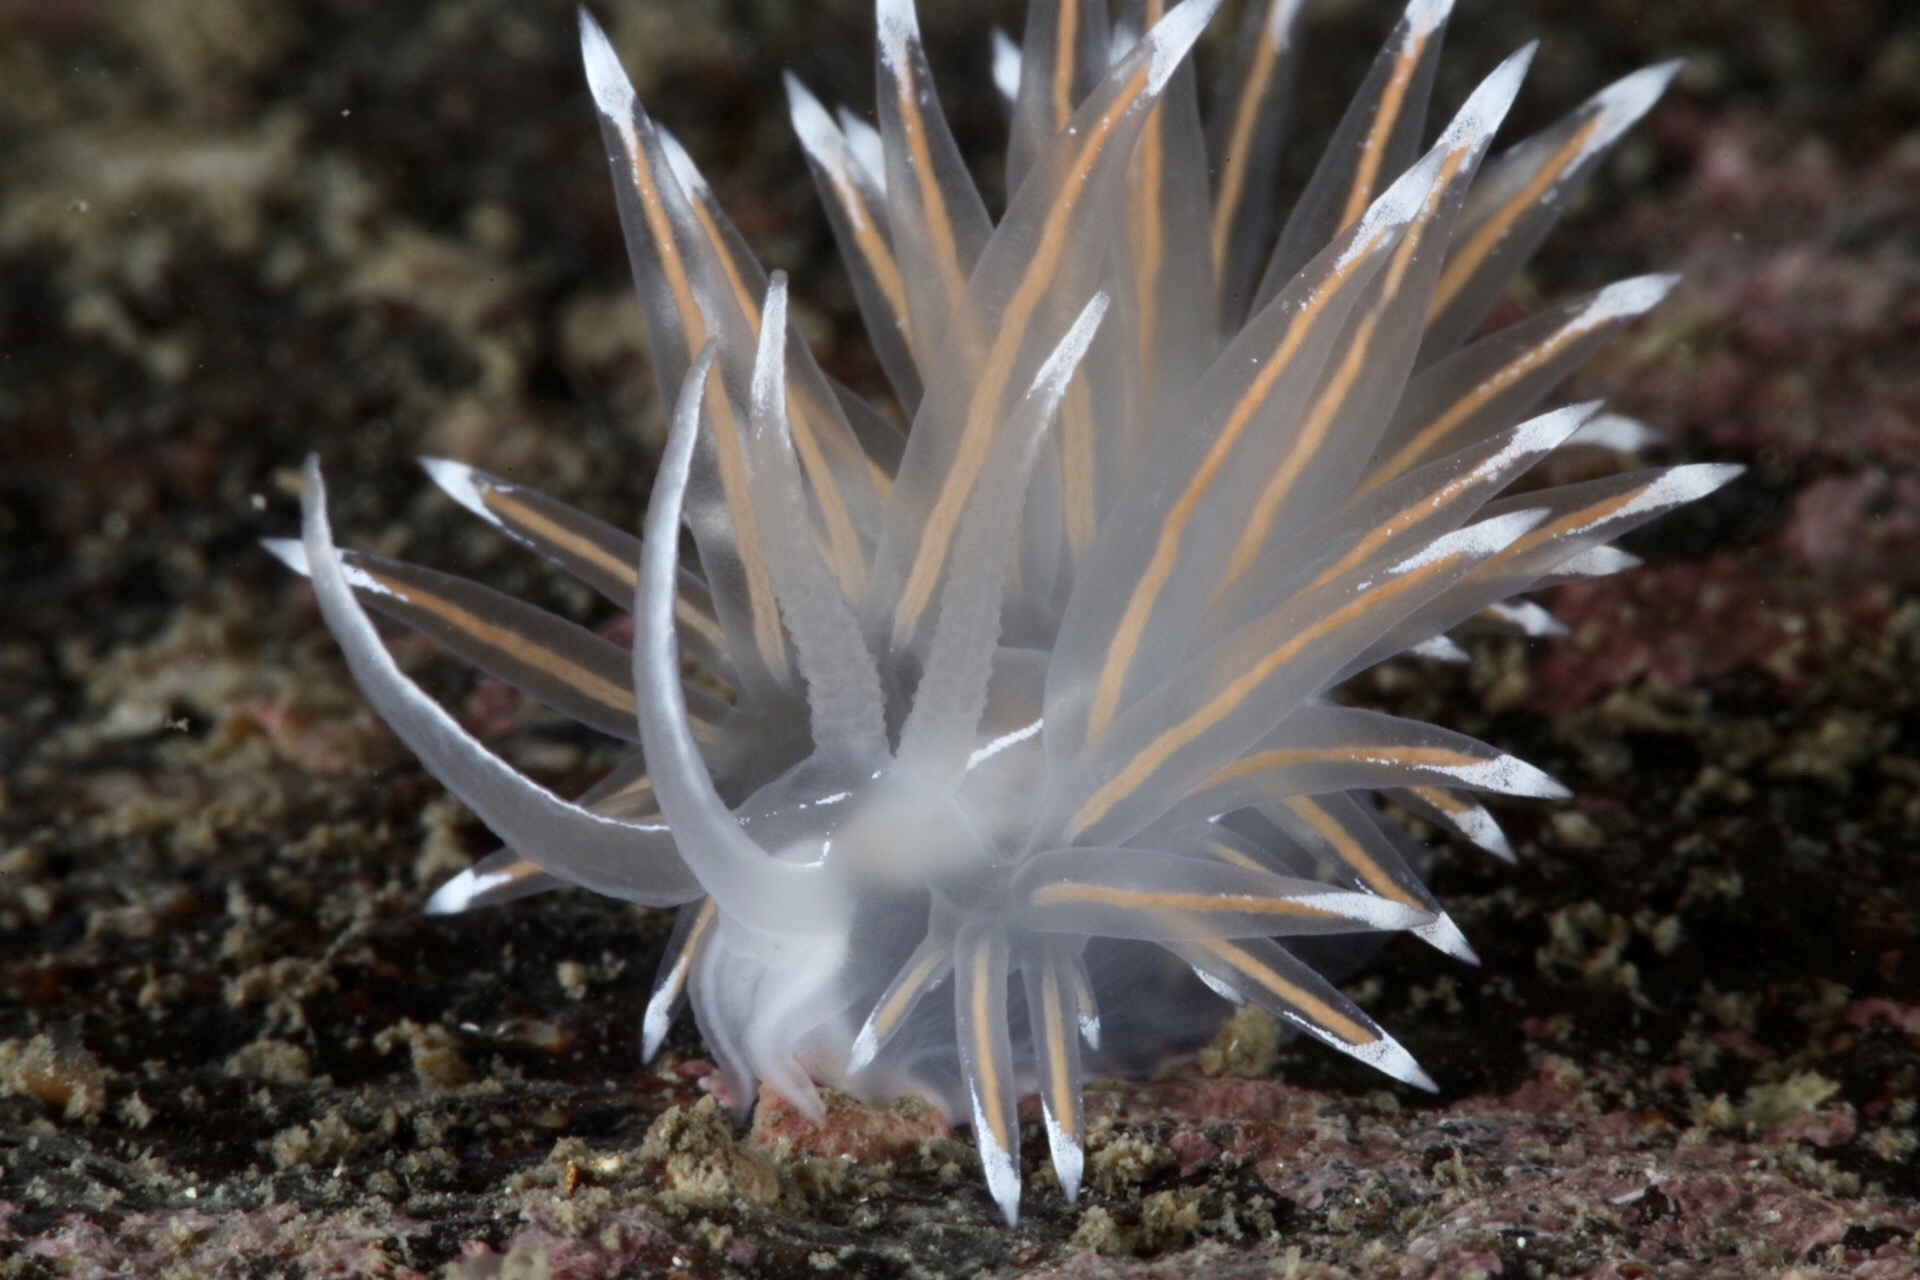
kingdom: Animalia
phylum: Mollusca
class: Gastropoda
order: Nudibranchia
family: Coryphellidae
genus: Coryphella
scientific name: Coryphella lineata
